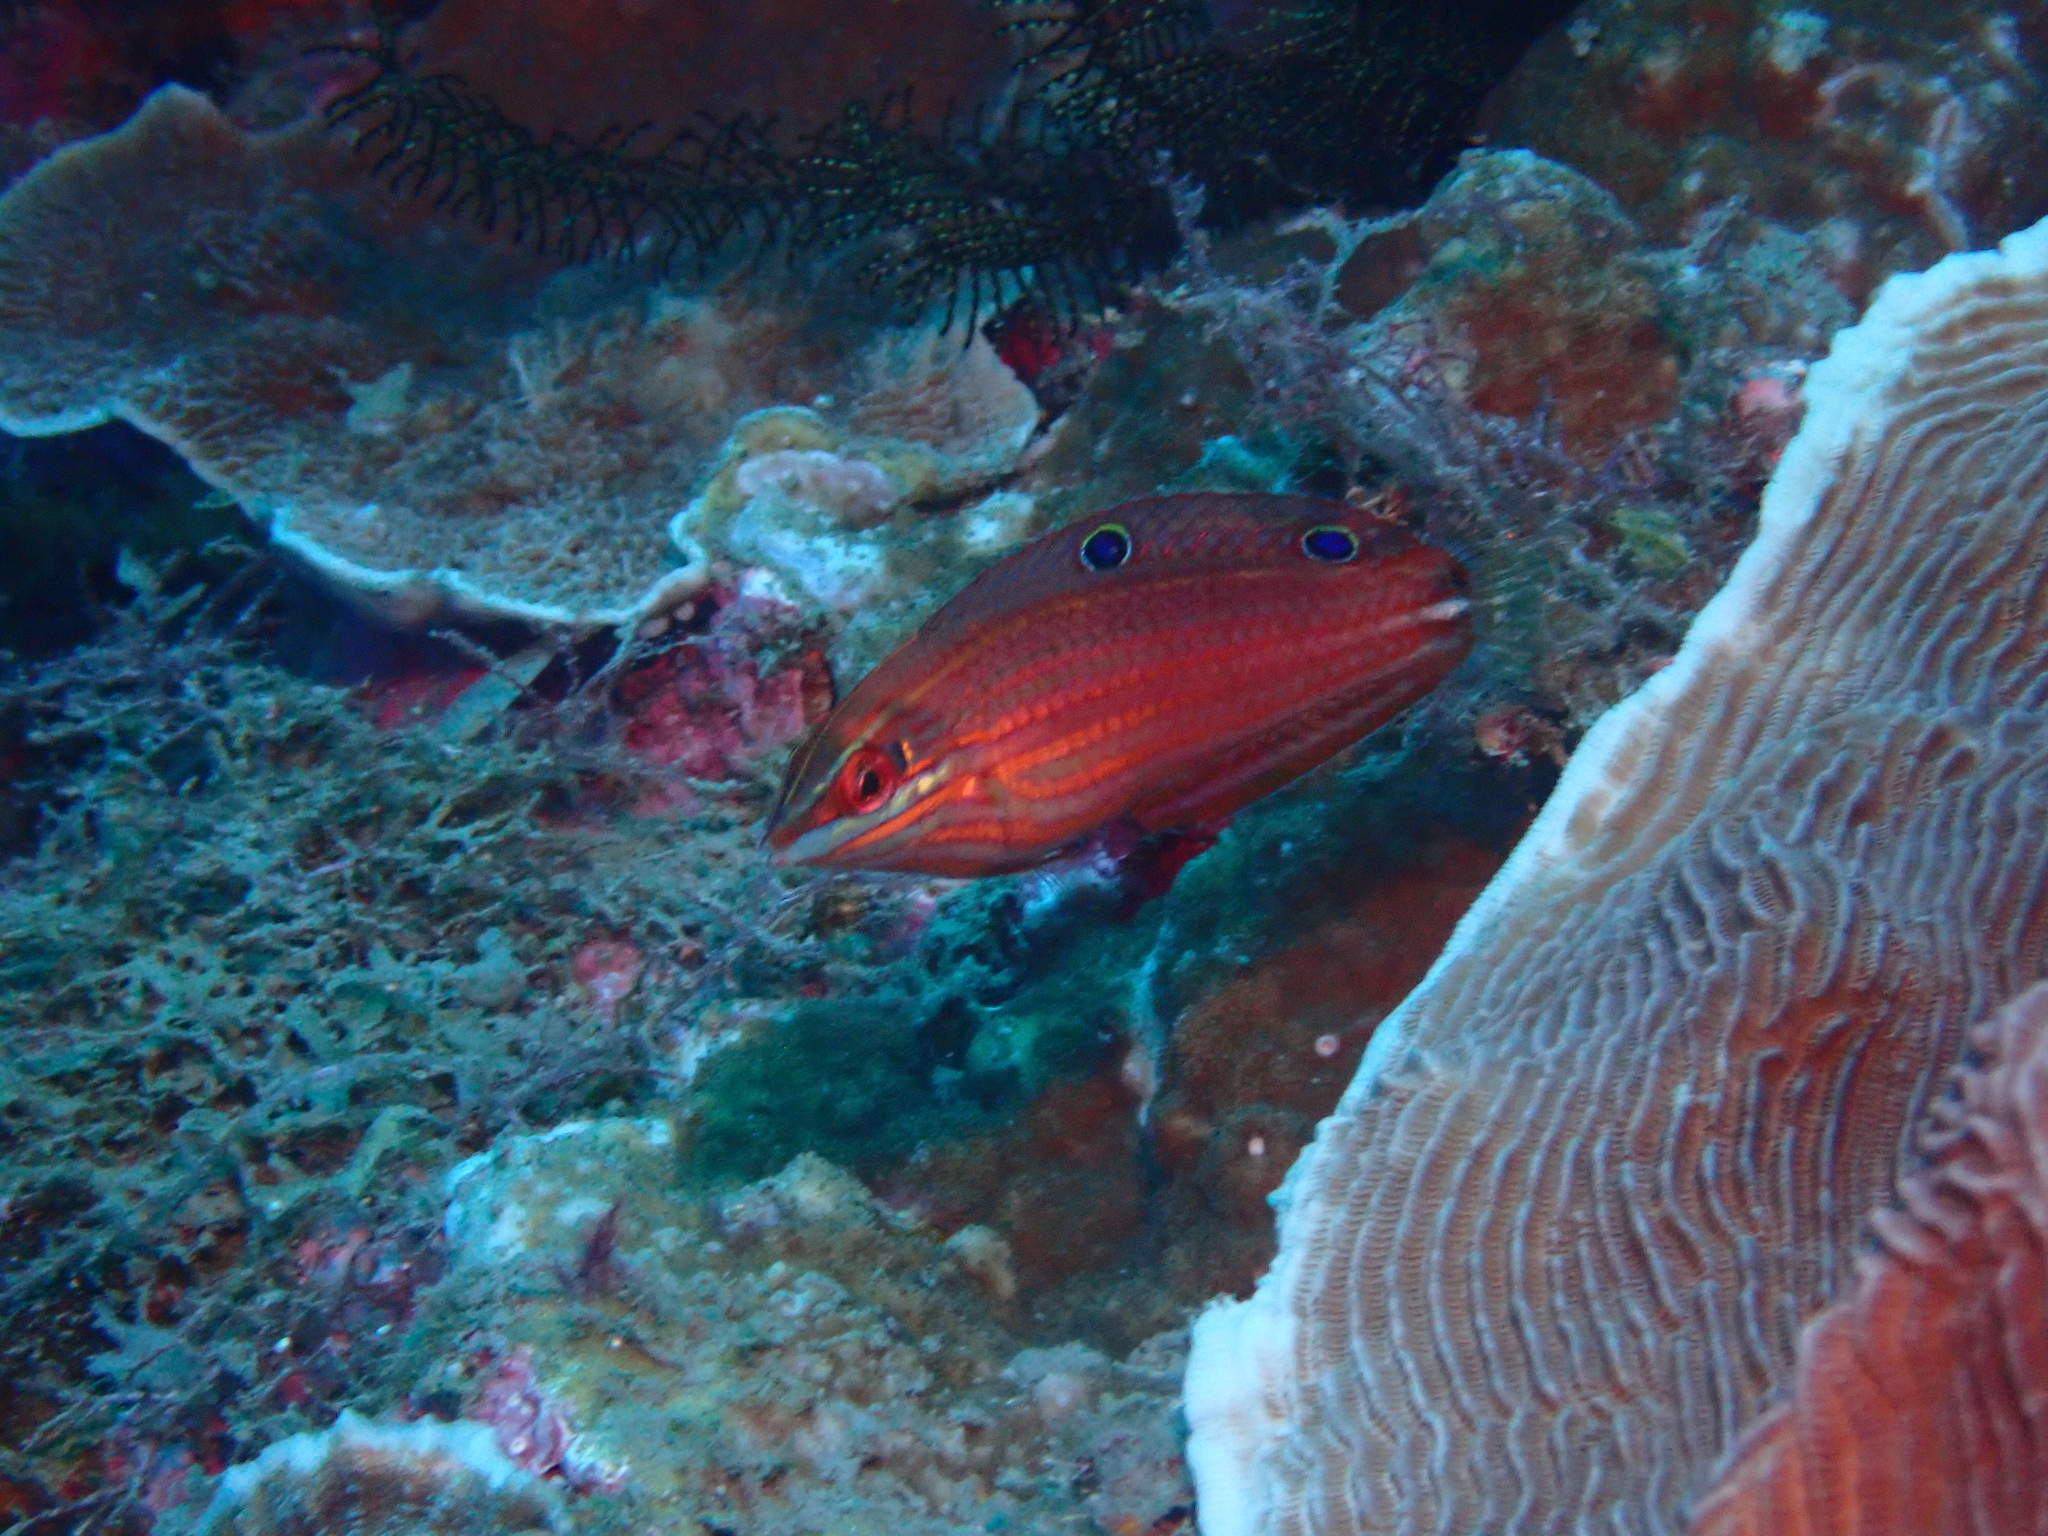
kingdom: Animalia
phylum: Chordata
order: Perciformes
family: Labridae
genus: Halichoeres
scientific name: Halichoeres biocellatus
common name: False-eyed wrasse
